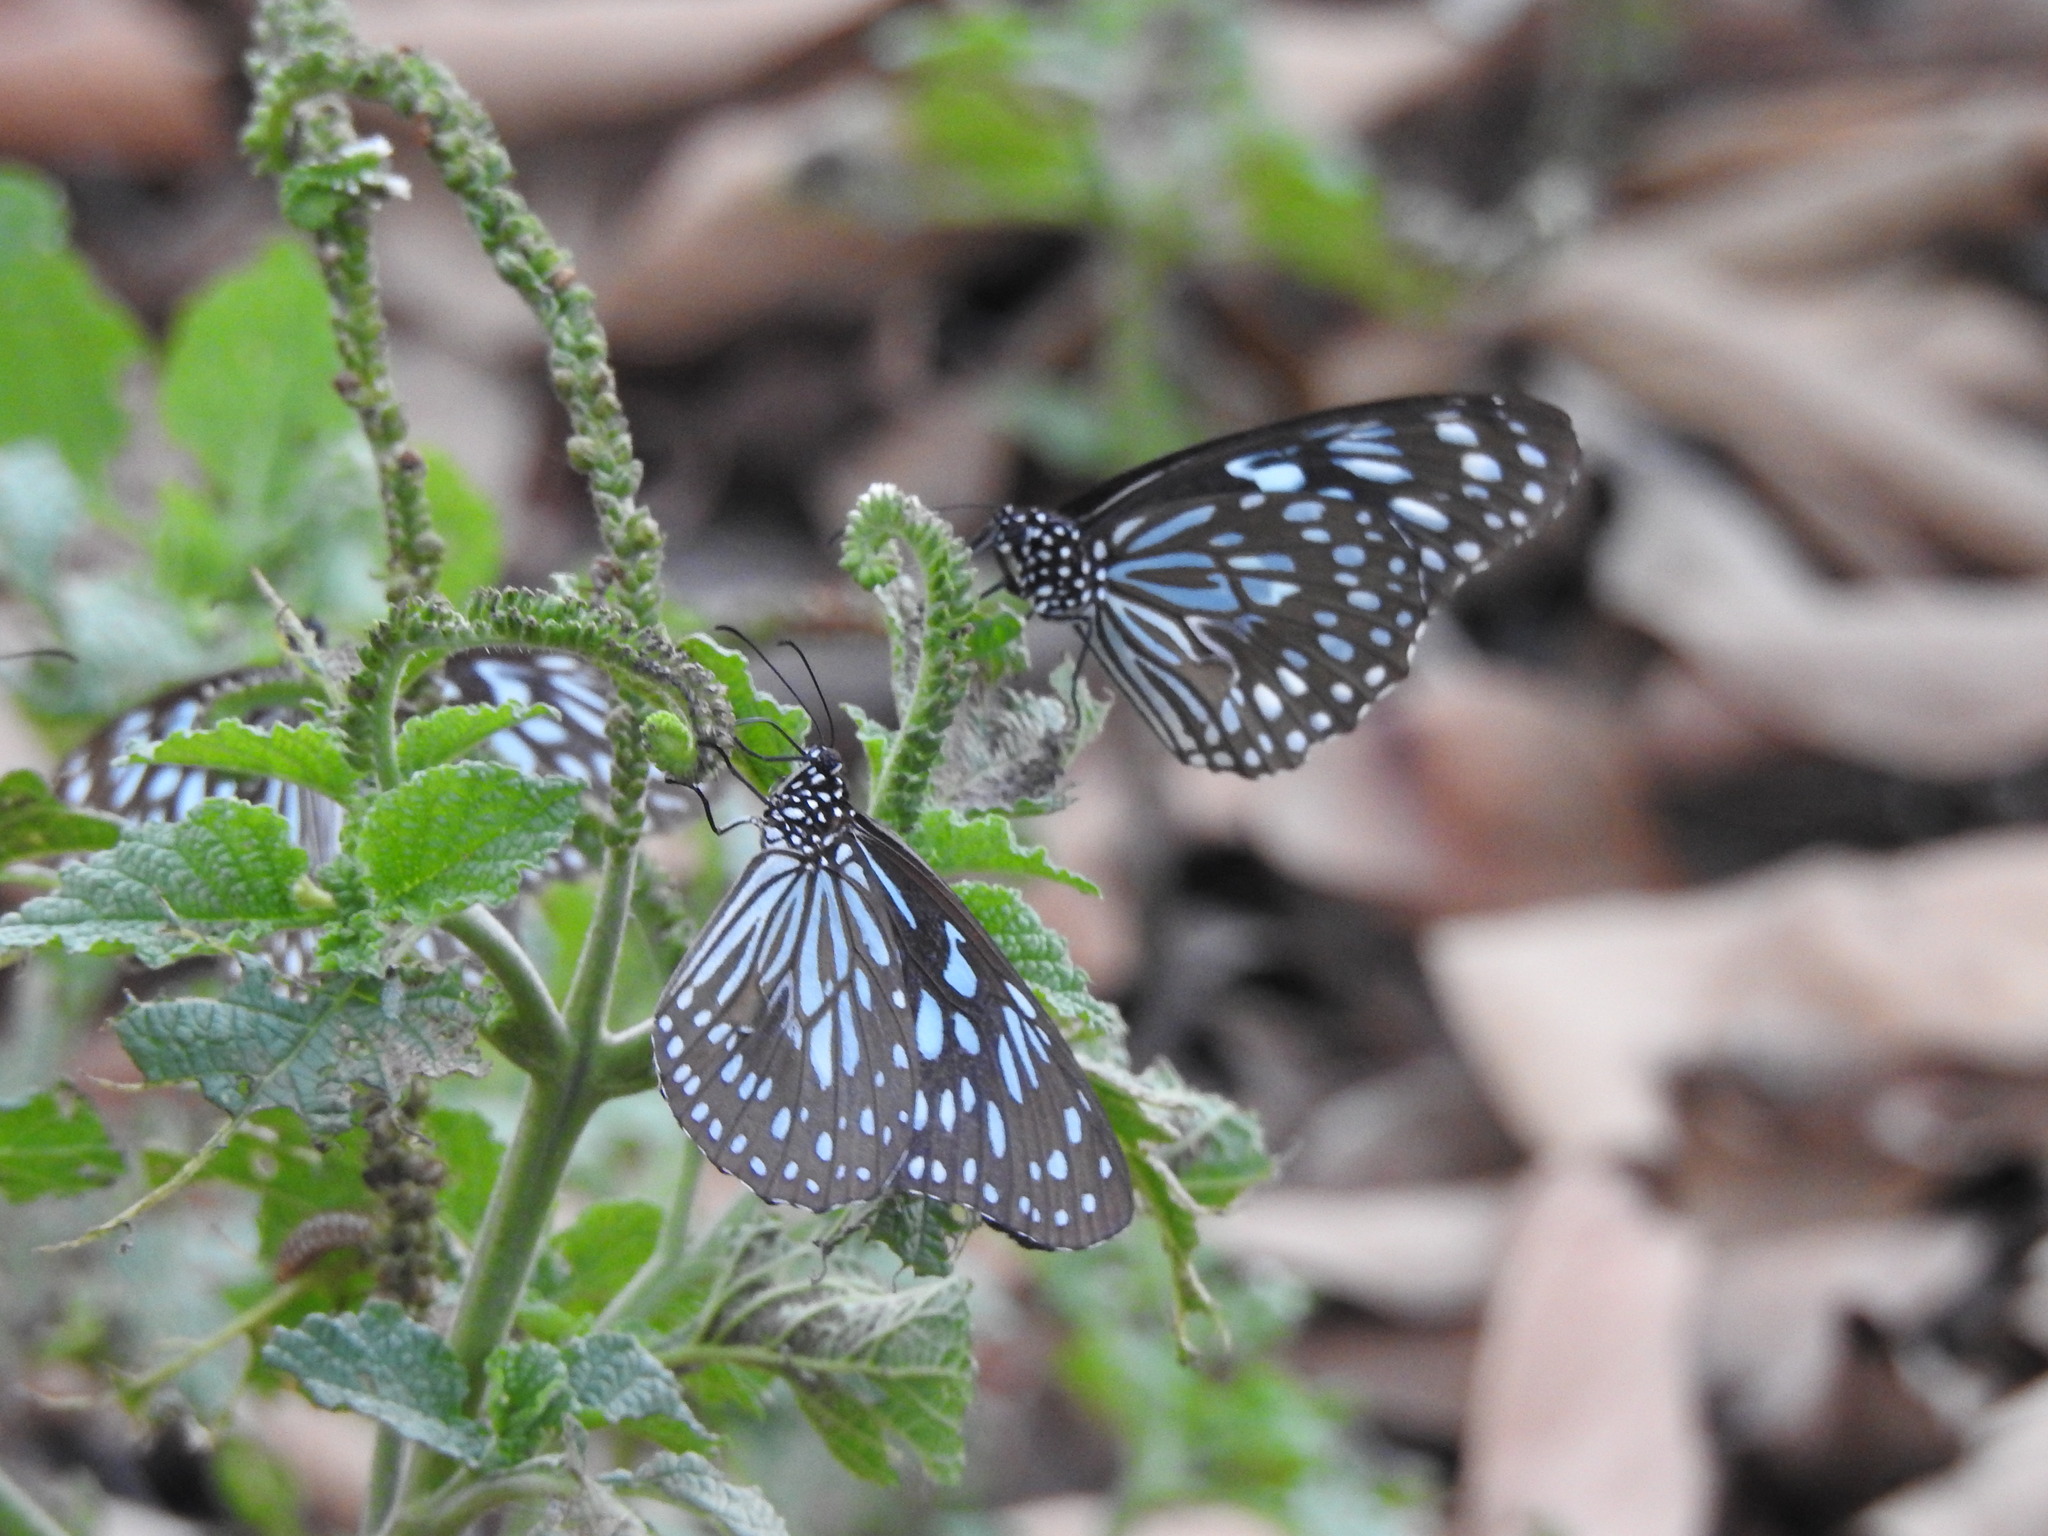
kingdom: Animalia
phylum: Arthropoda
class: Insecta
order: Lepidoptera
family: Nymphalidae
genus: Tirumala
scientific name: Tirumala septentrionis
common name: Dark blue tiger butterfly
